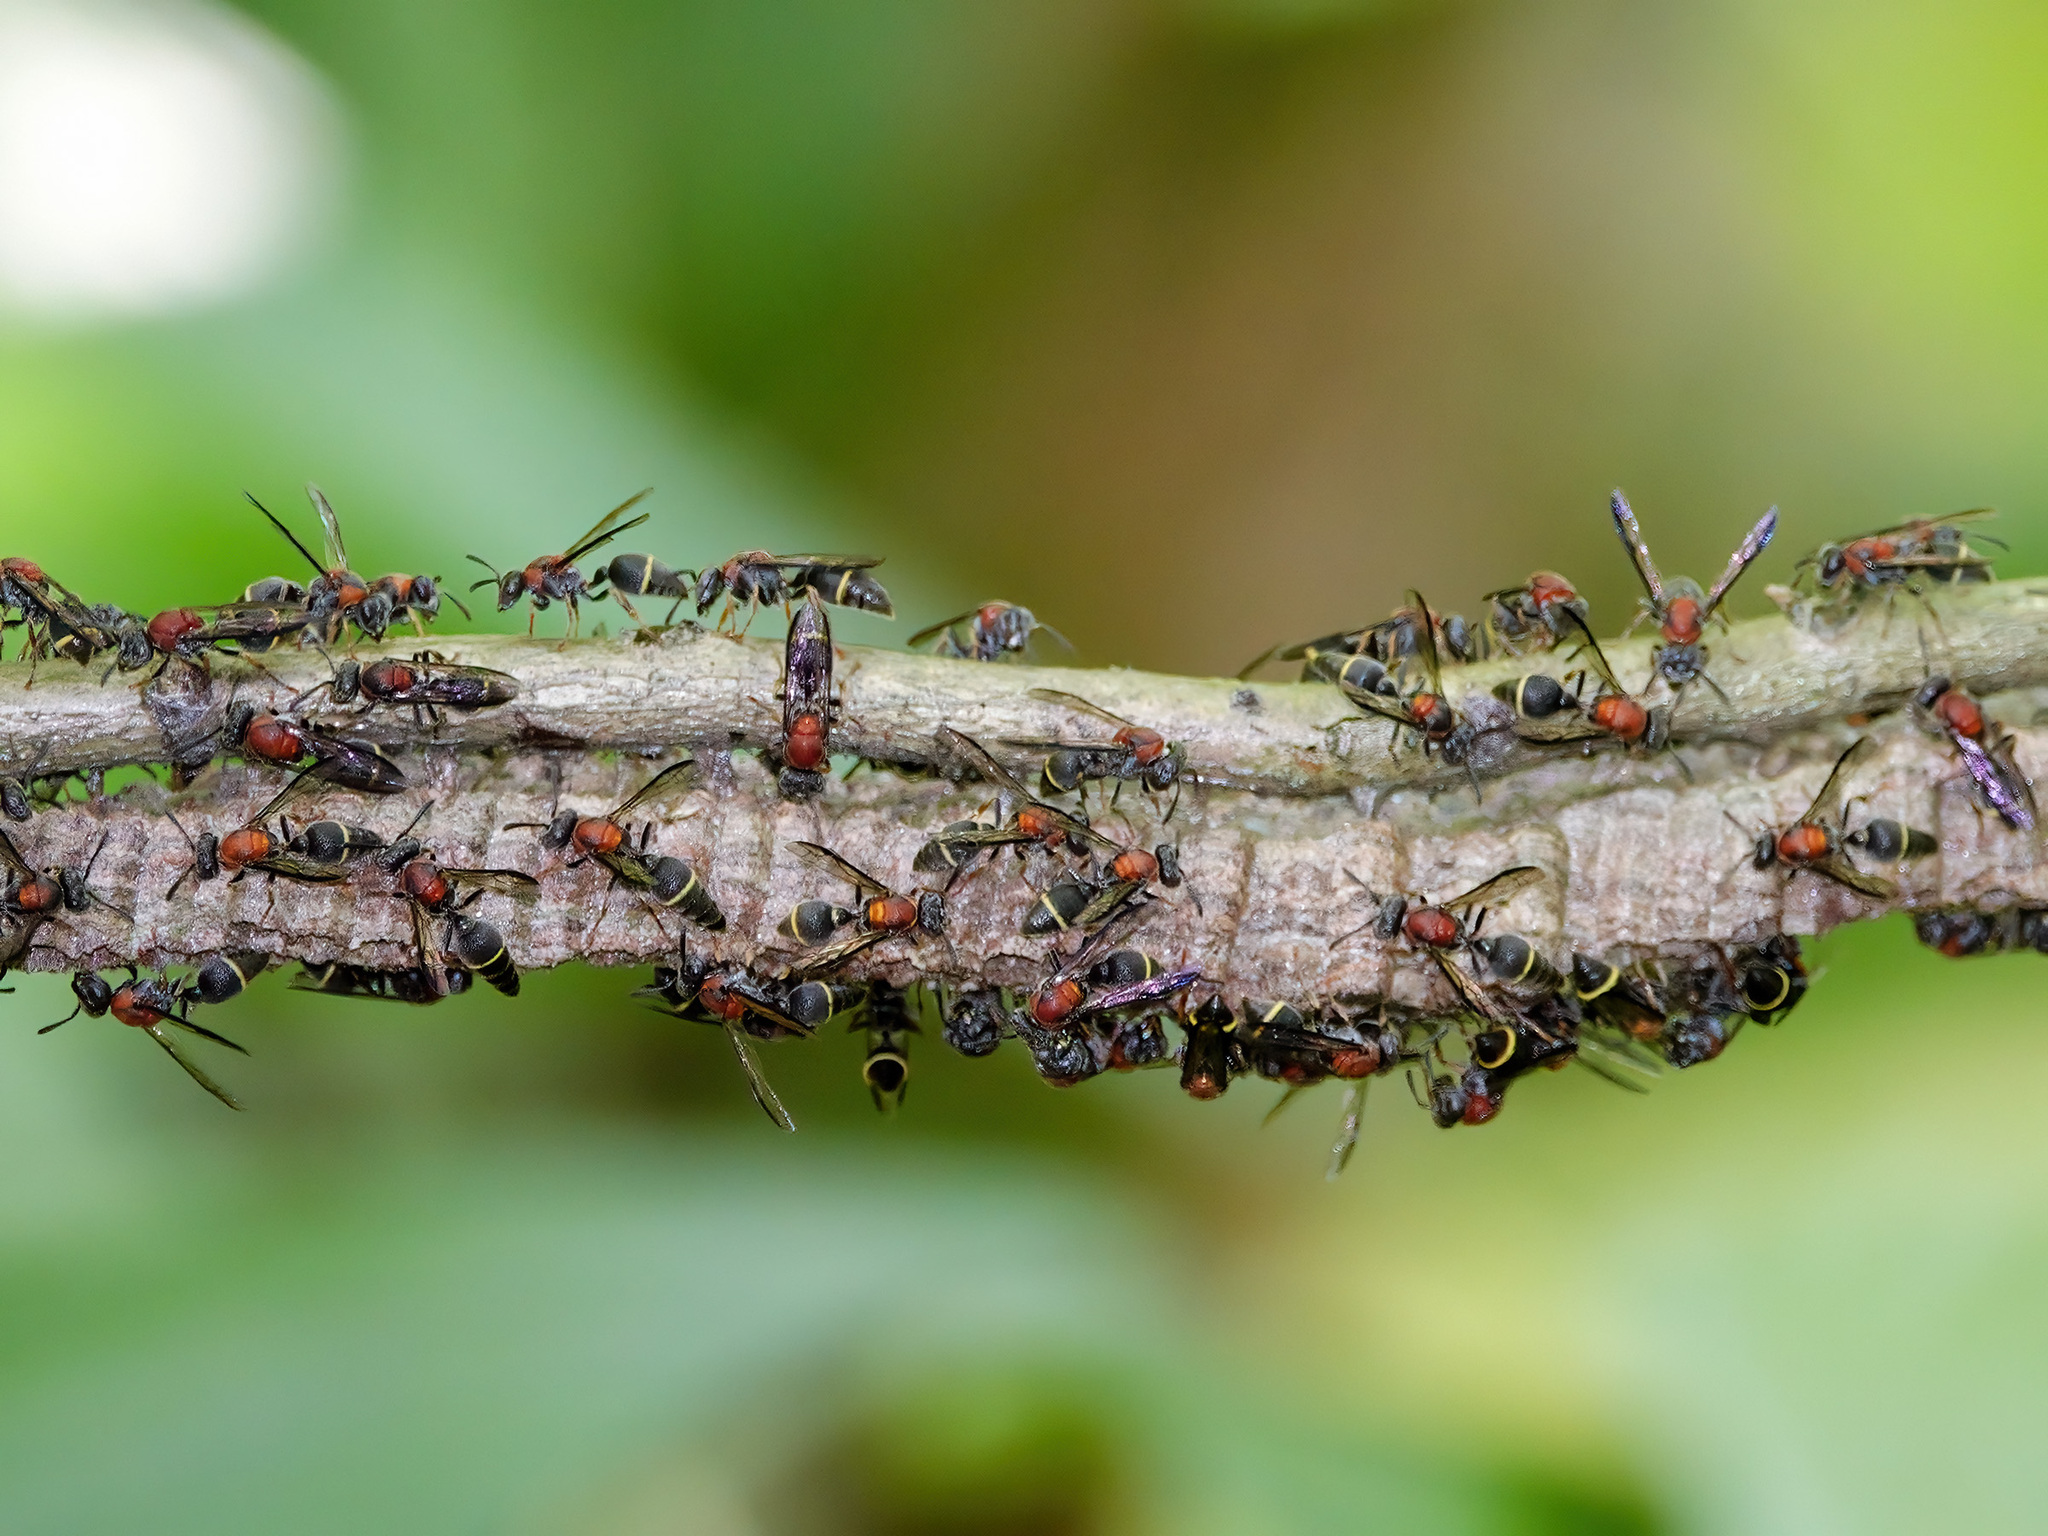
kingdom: Animalia
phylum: Arthropoda
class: Insecta
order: Hymenoptera
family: Vespidae
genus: Ropalidia
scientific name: Ropalidia erythrospila
